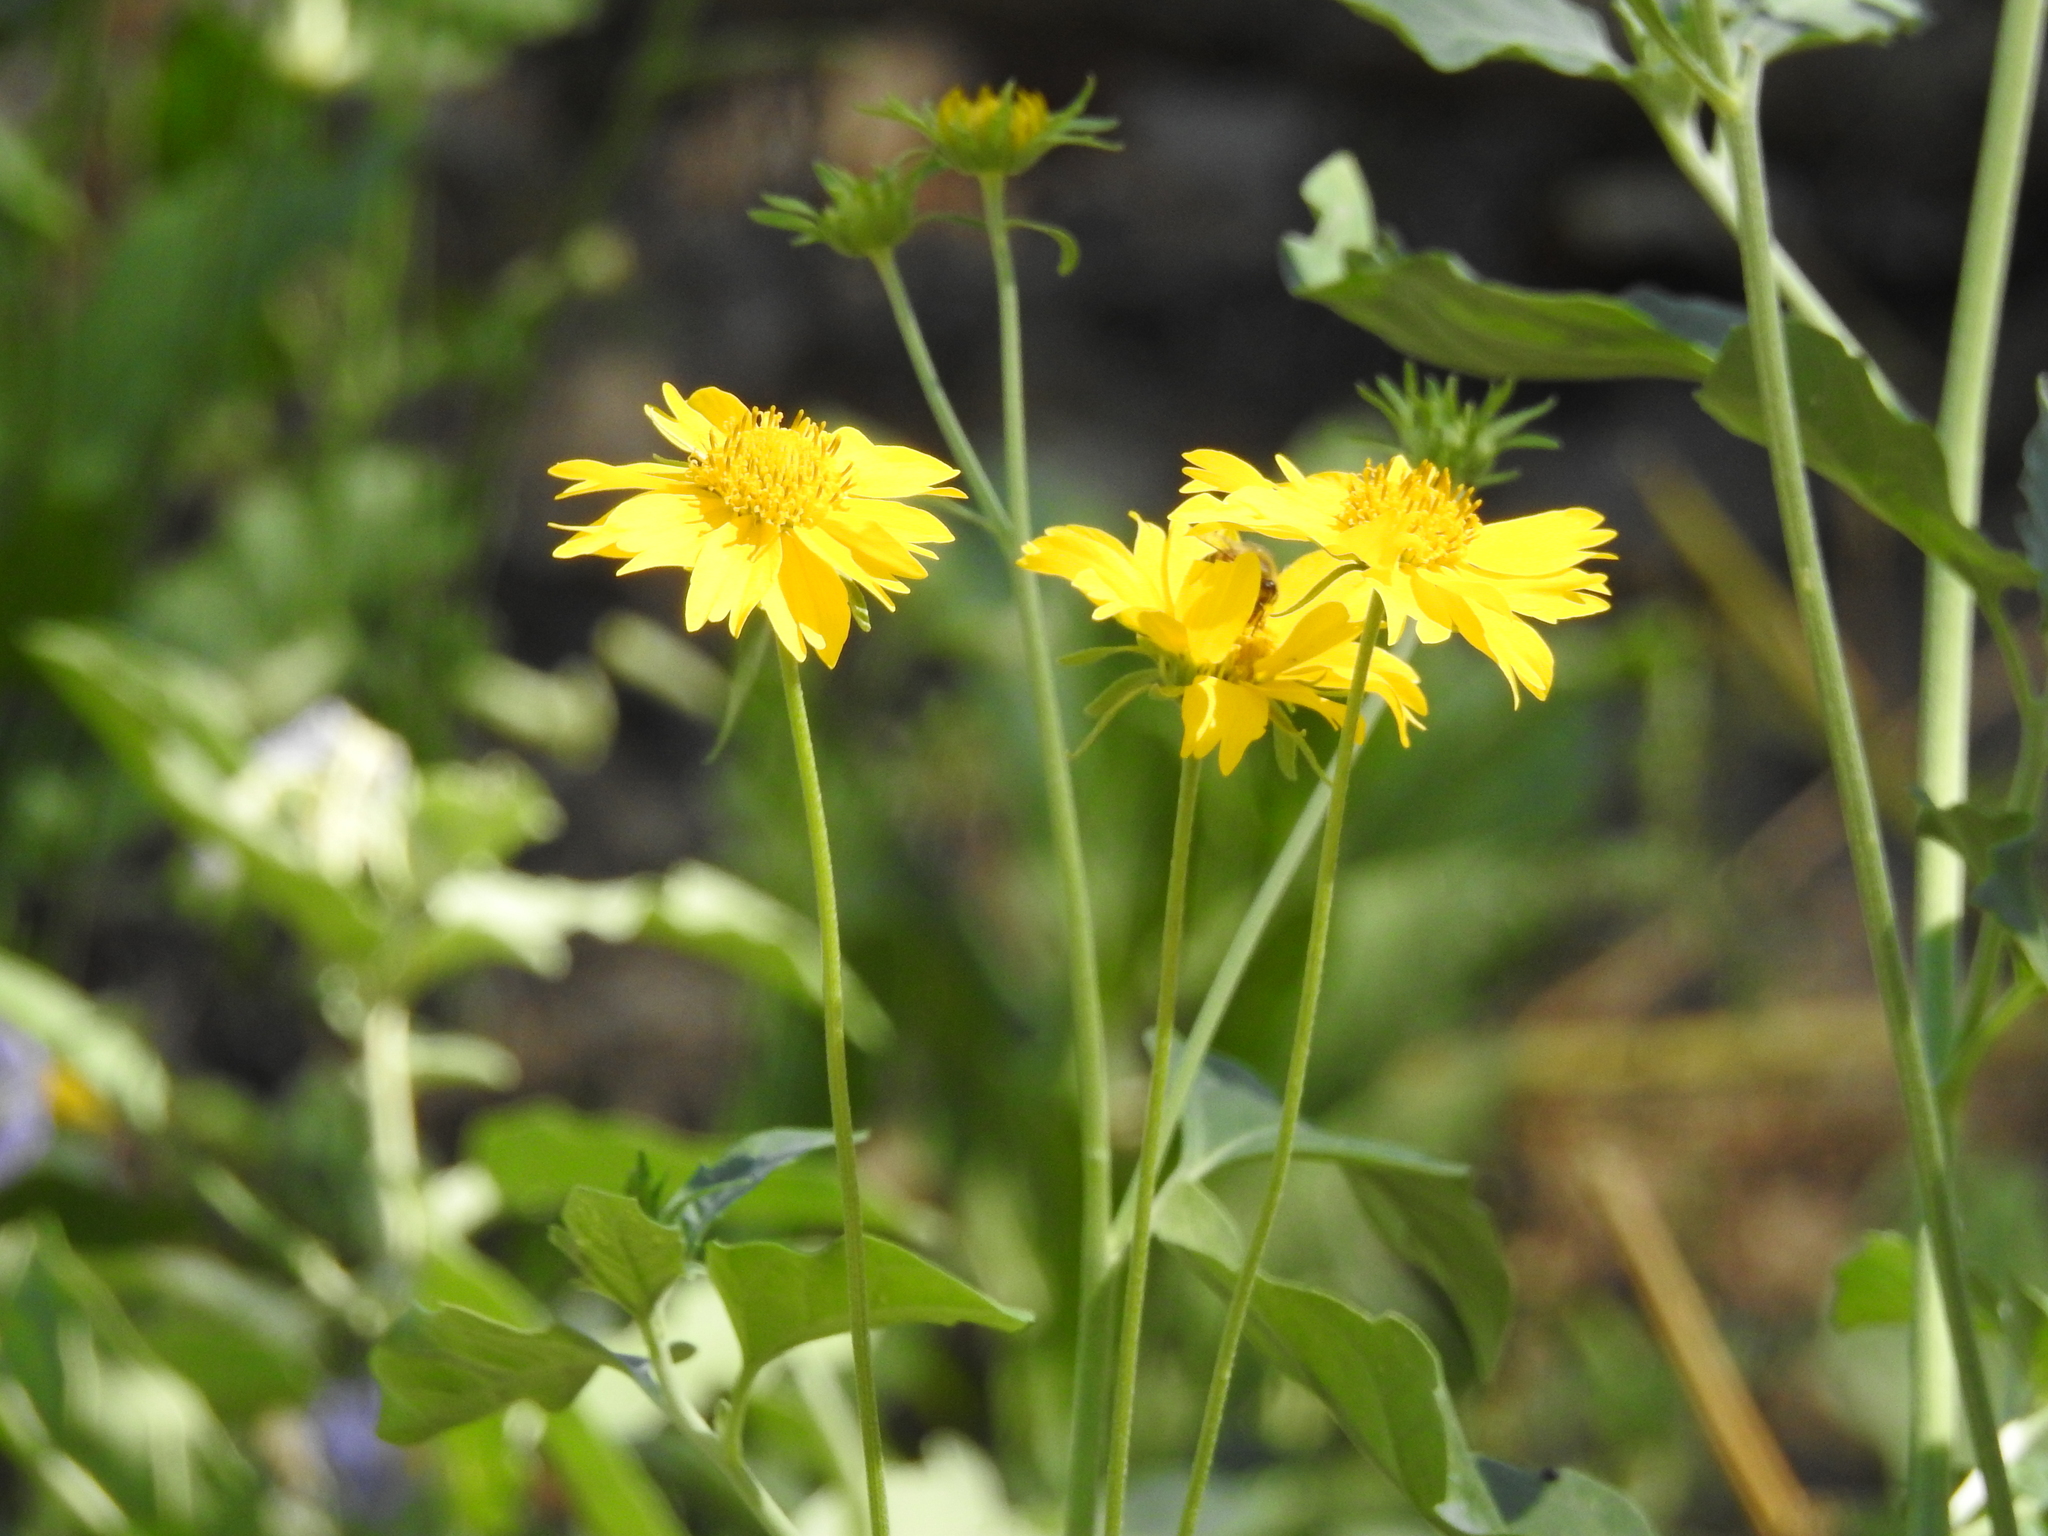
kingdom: Plantae
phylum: Tracheophyta
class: Magnoliopsida
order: Asterales
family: Asteraceae
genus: Verbesina
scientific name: Verbesina encelioides
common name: Golden crownbeard
